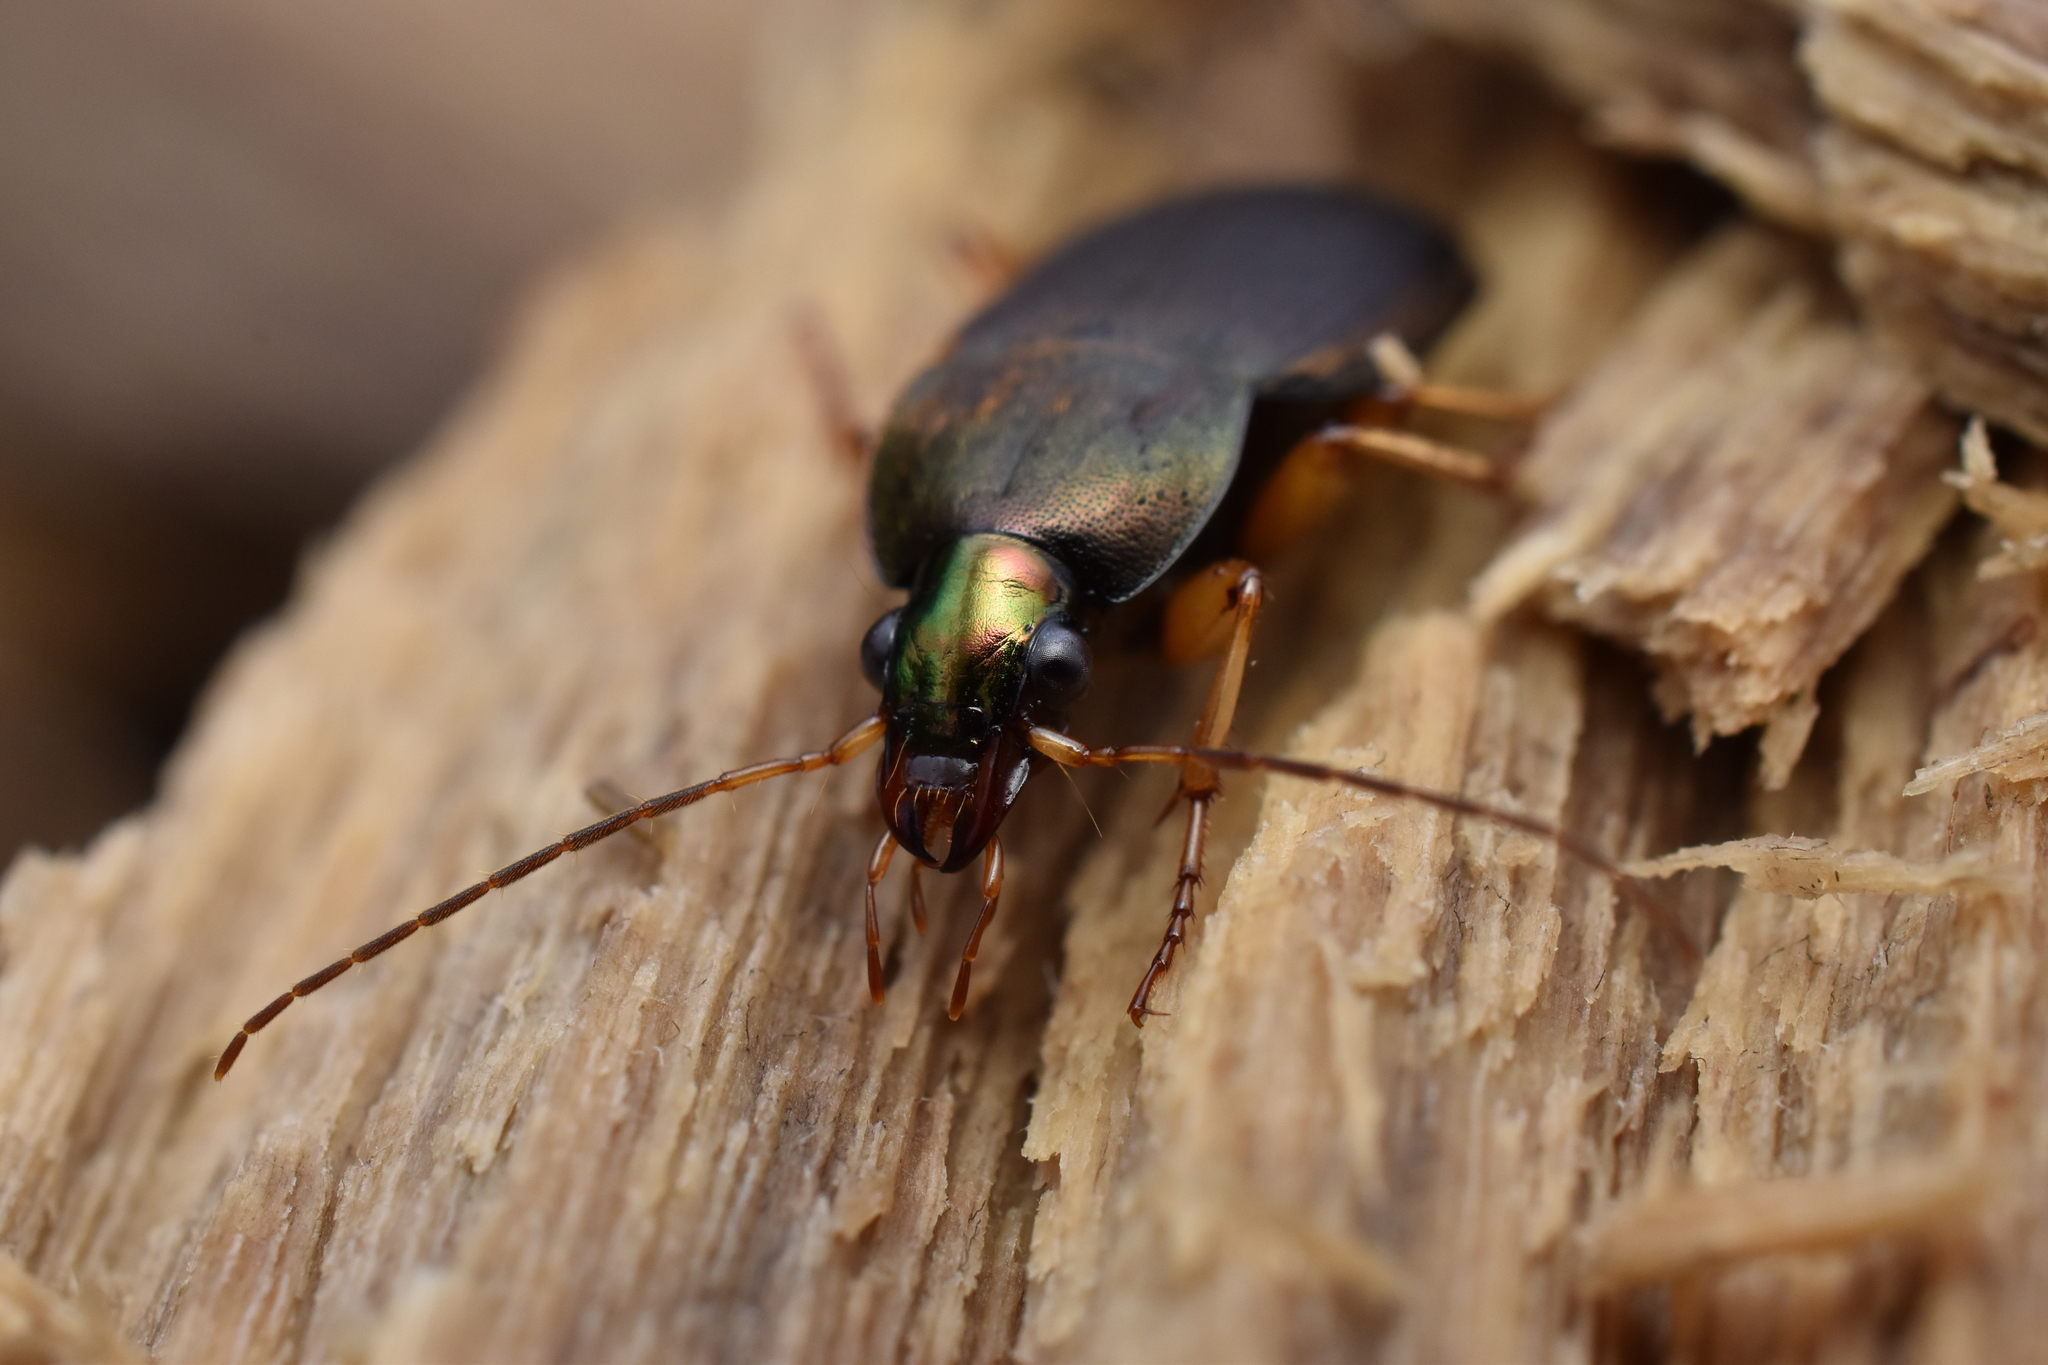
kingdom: Animalia
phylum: Arthropoda
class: Insecta
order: Coleoptera
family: Carabidae
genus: Chlaenius
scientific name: Chlaenius impunctifrons
